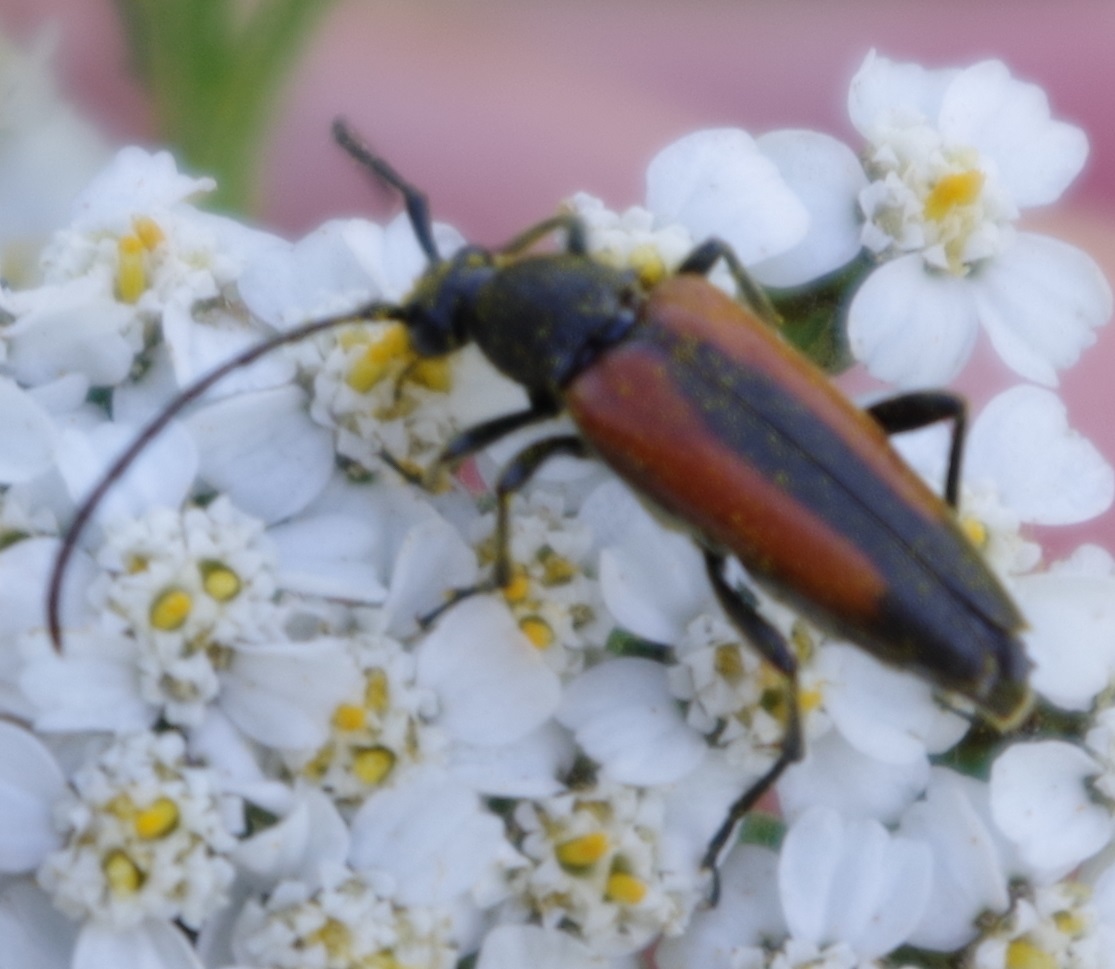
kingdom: Animalia
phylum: Arthropoda
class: Insecta
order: Coleoptera
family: Cerambycidae
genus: Stenurella
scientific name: Stenurella melanura
